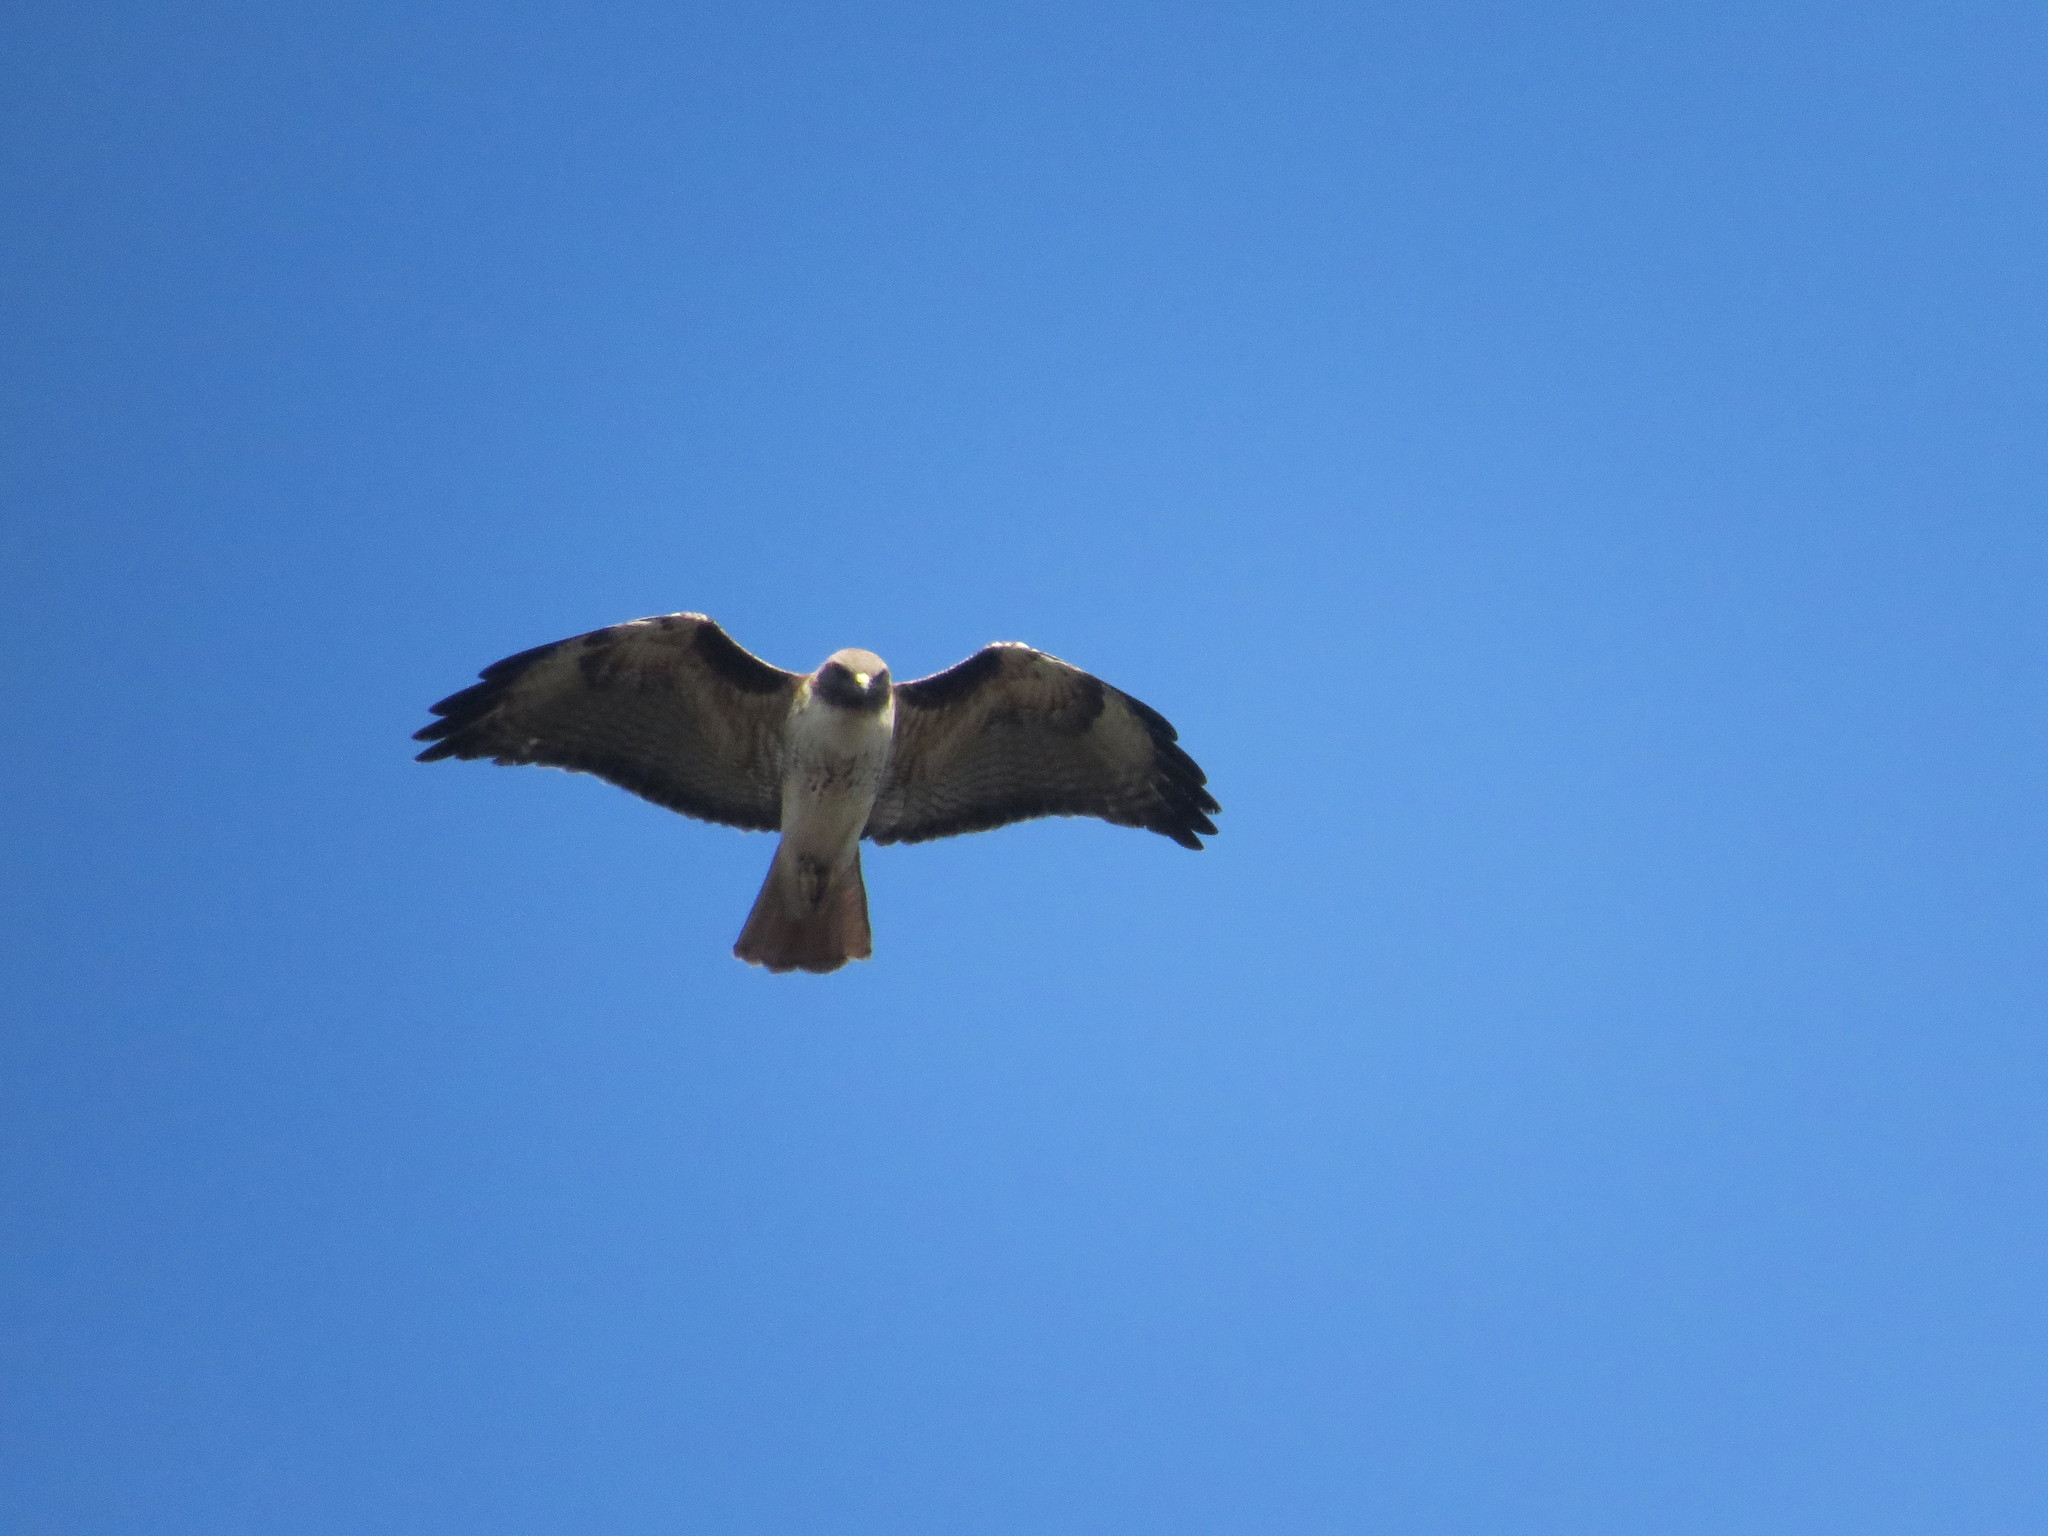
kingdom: Animalia
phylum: Chordata
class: Aves
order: Accipitriformes
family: Accipitridae
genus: Buteo
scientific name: Buteo jamaicensis
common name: Red-tailed hawk
